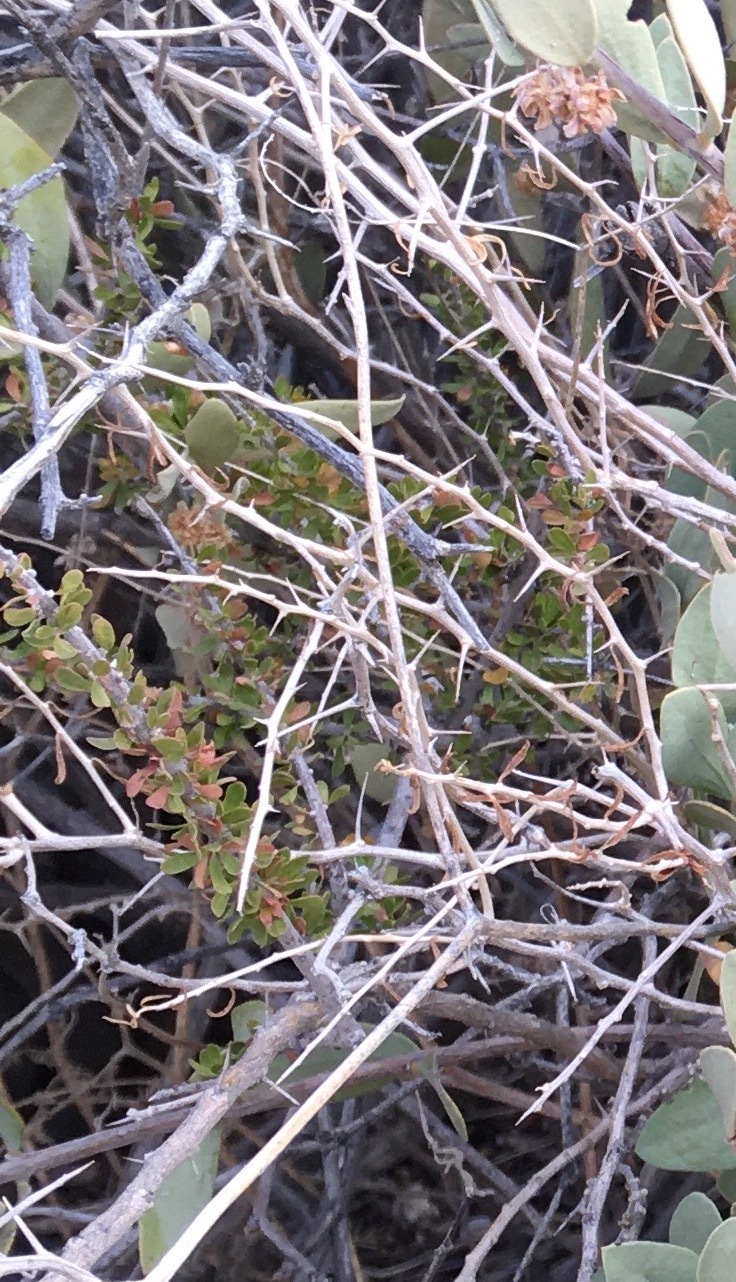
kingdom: Plantae
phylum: Tracheophyta
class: Magnoliopsida
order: Malpighiales
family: Picrodendraceae
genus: Tetracoccus
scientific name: Tetracoccus hallii
